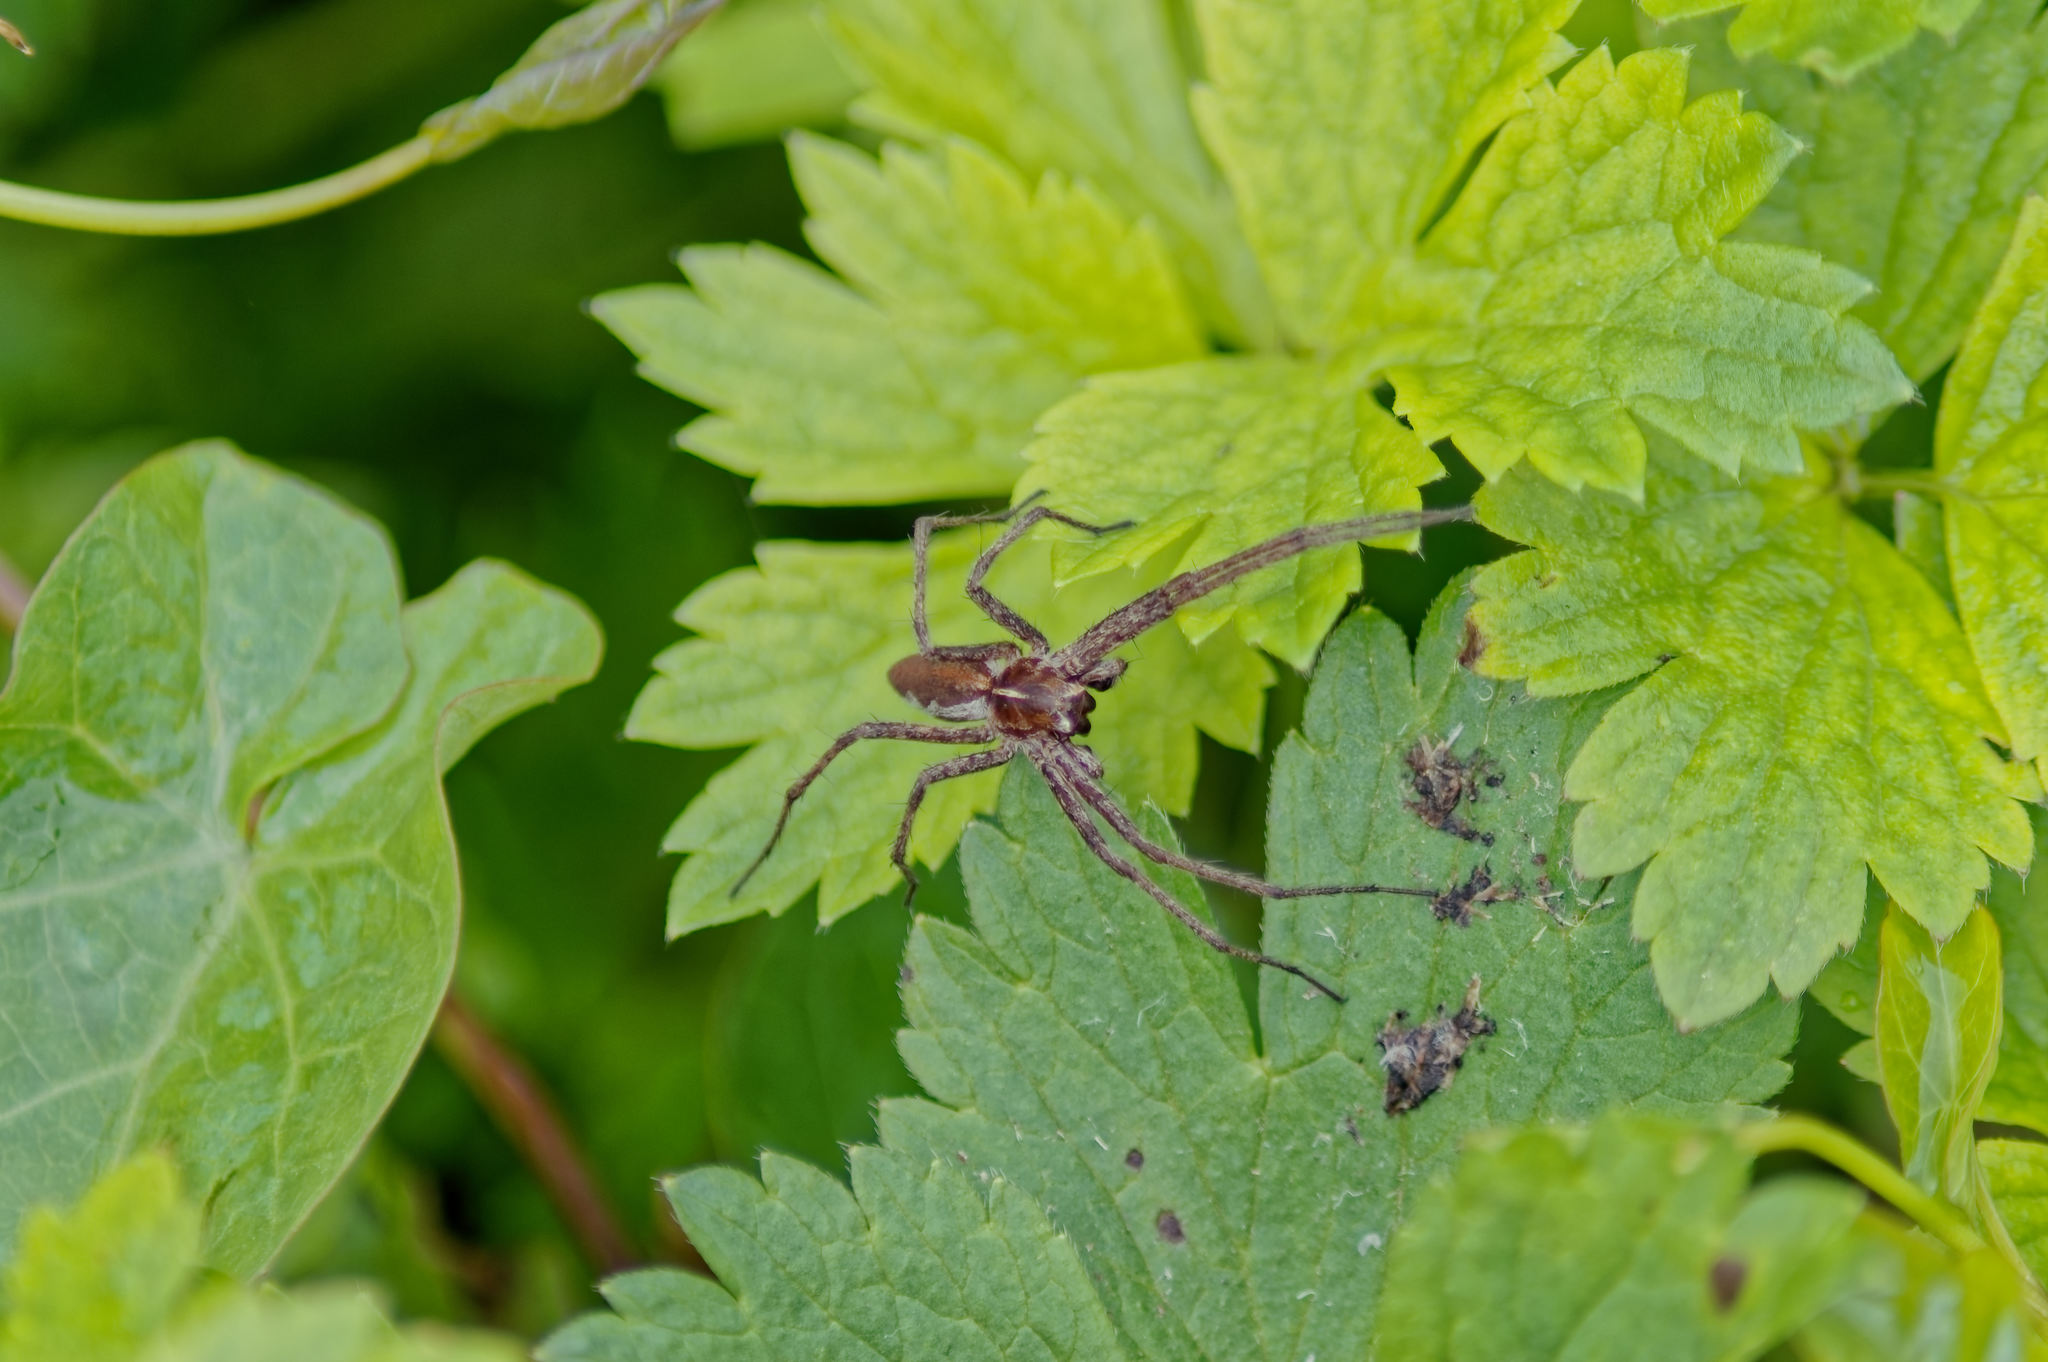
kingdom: Animalia
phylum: Arthropoda
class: Arachnida
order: Araneae
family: Pisauridae
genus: Pisaura
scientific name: Pisaura mirabilis
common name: Tent spider
